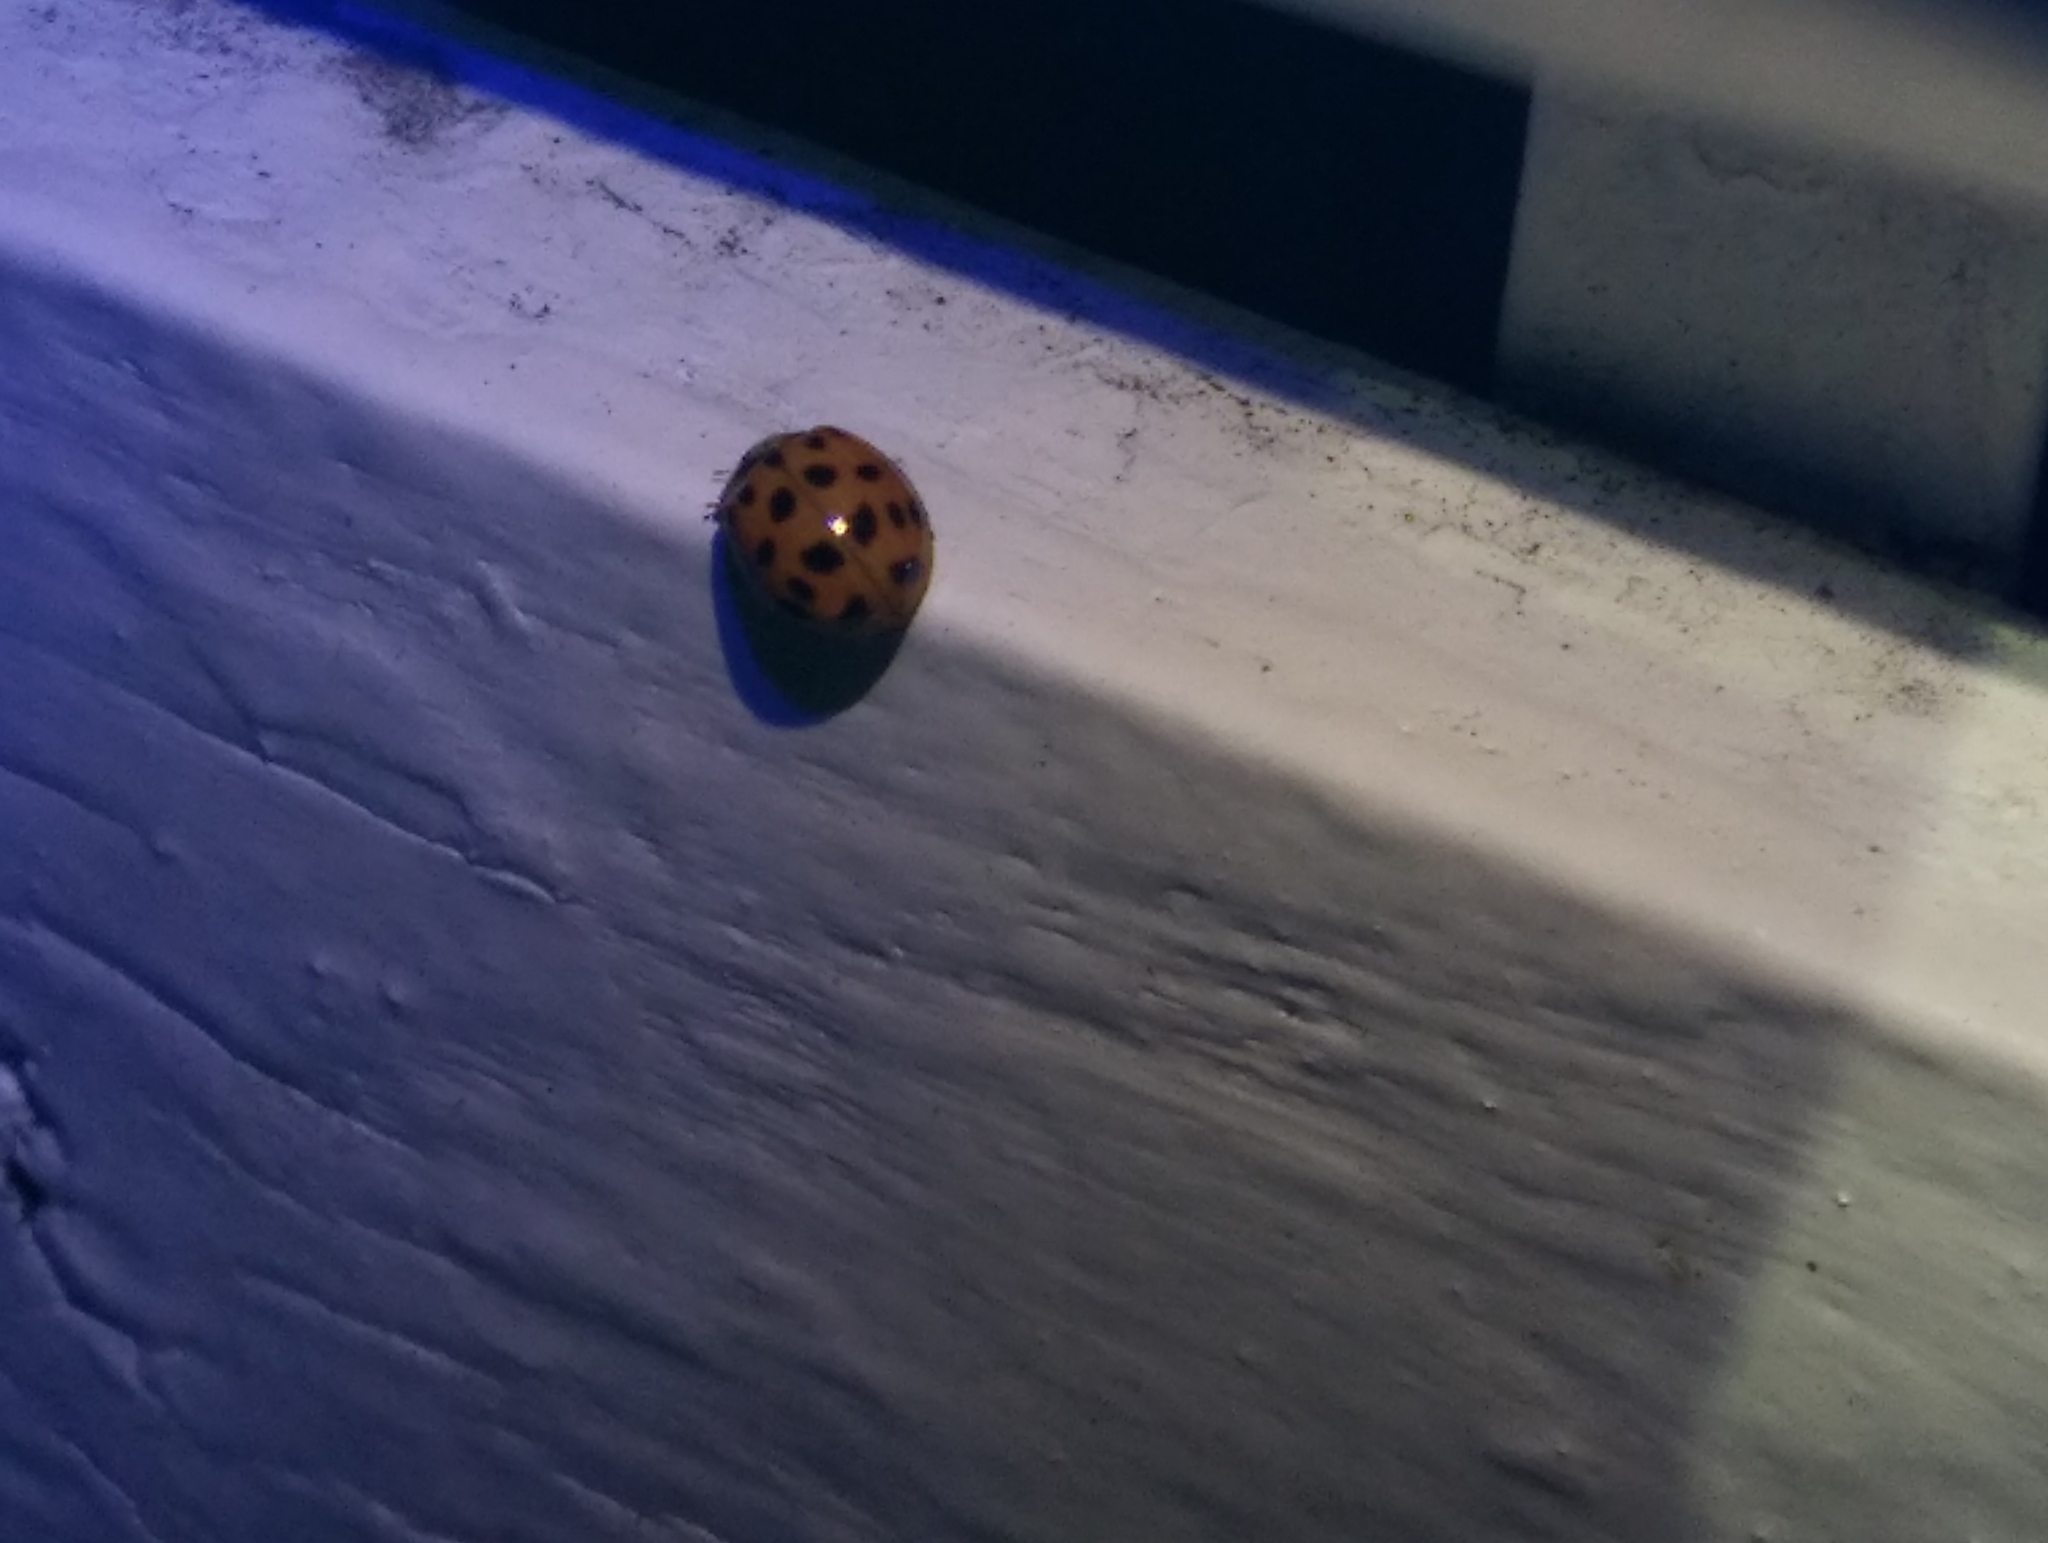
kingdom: Animalia
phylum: Arthropoda
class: Insecta
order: Coleoptera
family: Coccinellidae
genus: Harmonia
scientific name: Harmonia axyridis
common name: Harlequin ladybird
